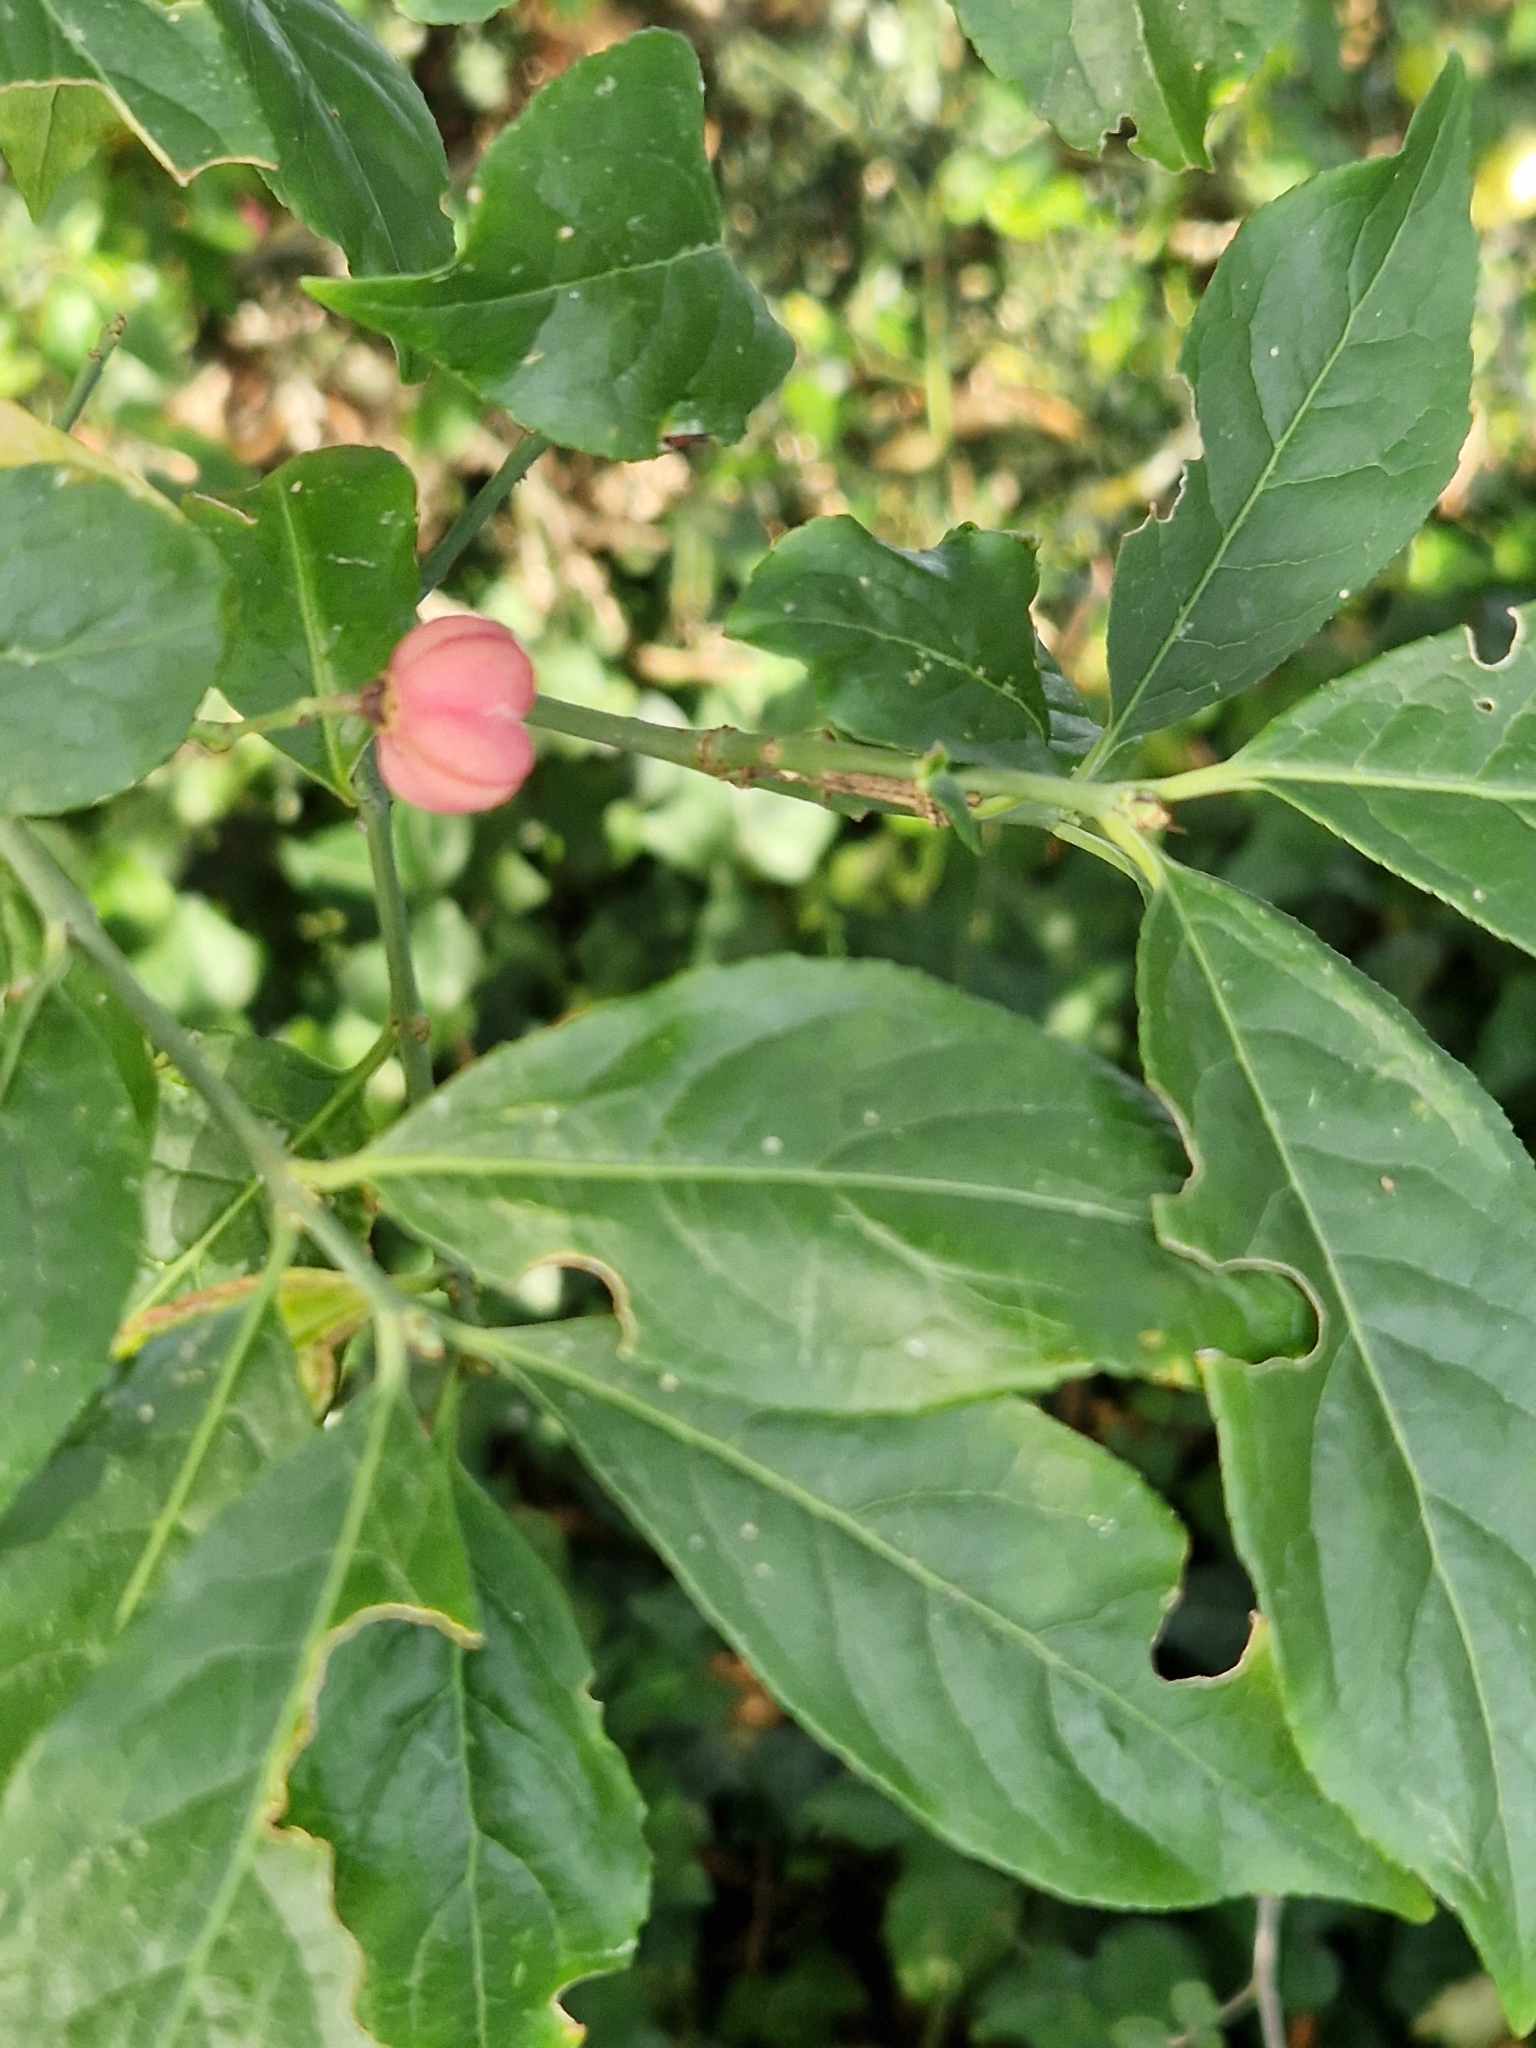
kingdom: Plantae
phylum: Tracheophyta
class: Magnoliopsida
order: Celastrales
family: Celastraceae
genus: Euonymus
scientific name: Euonymus europaeus
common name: Spindle
